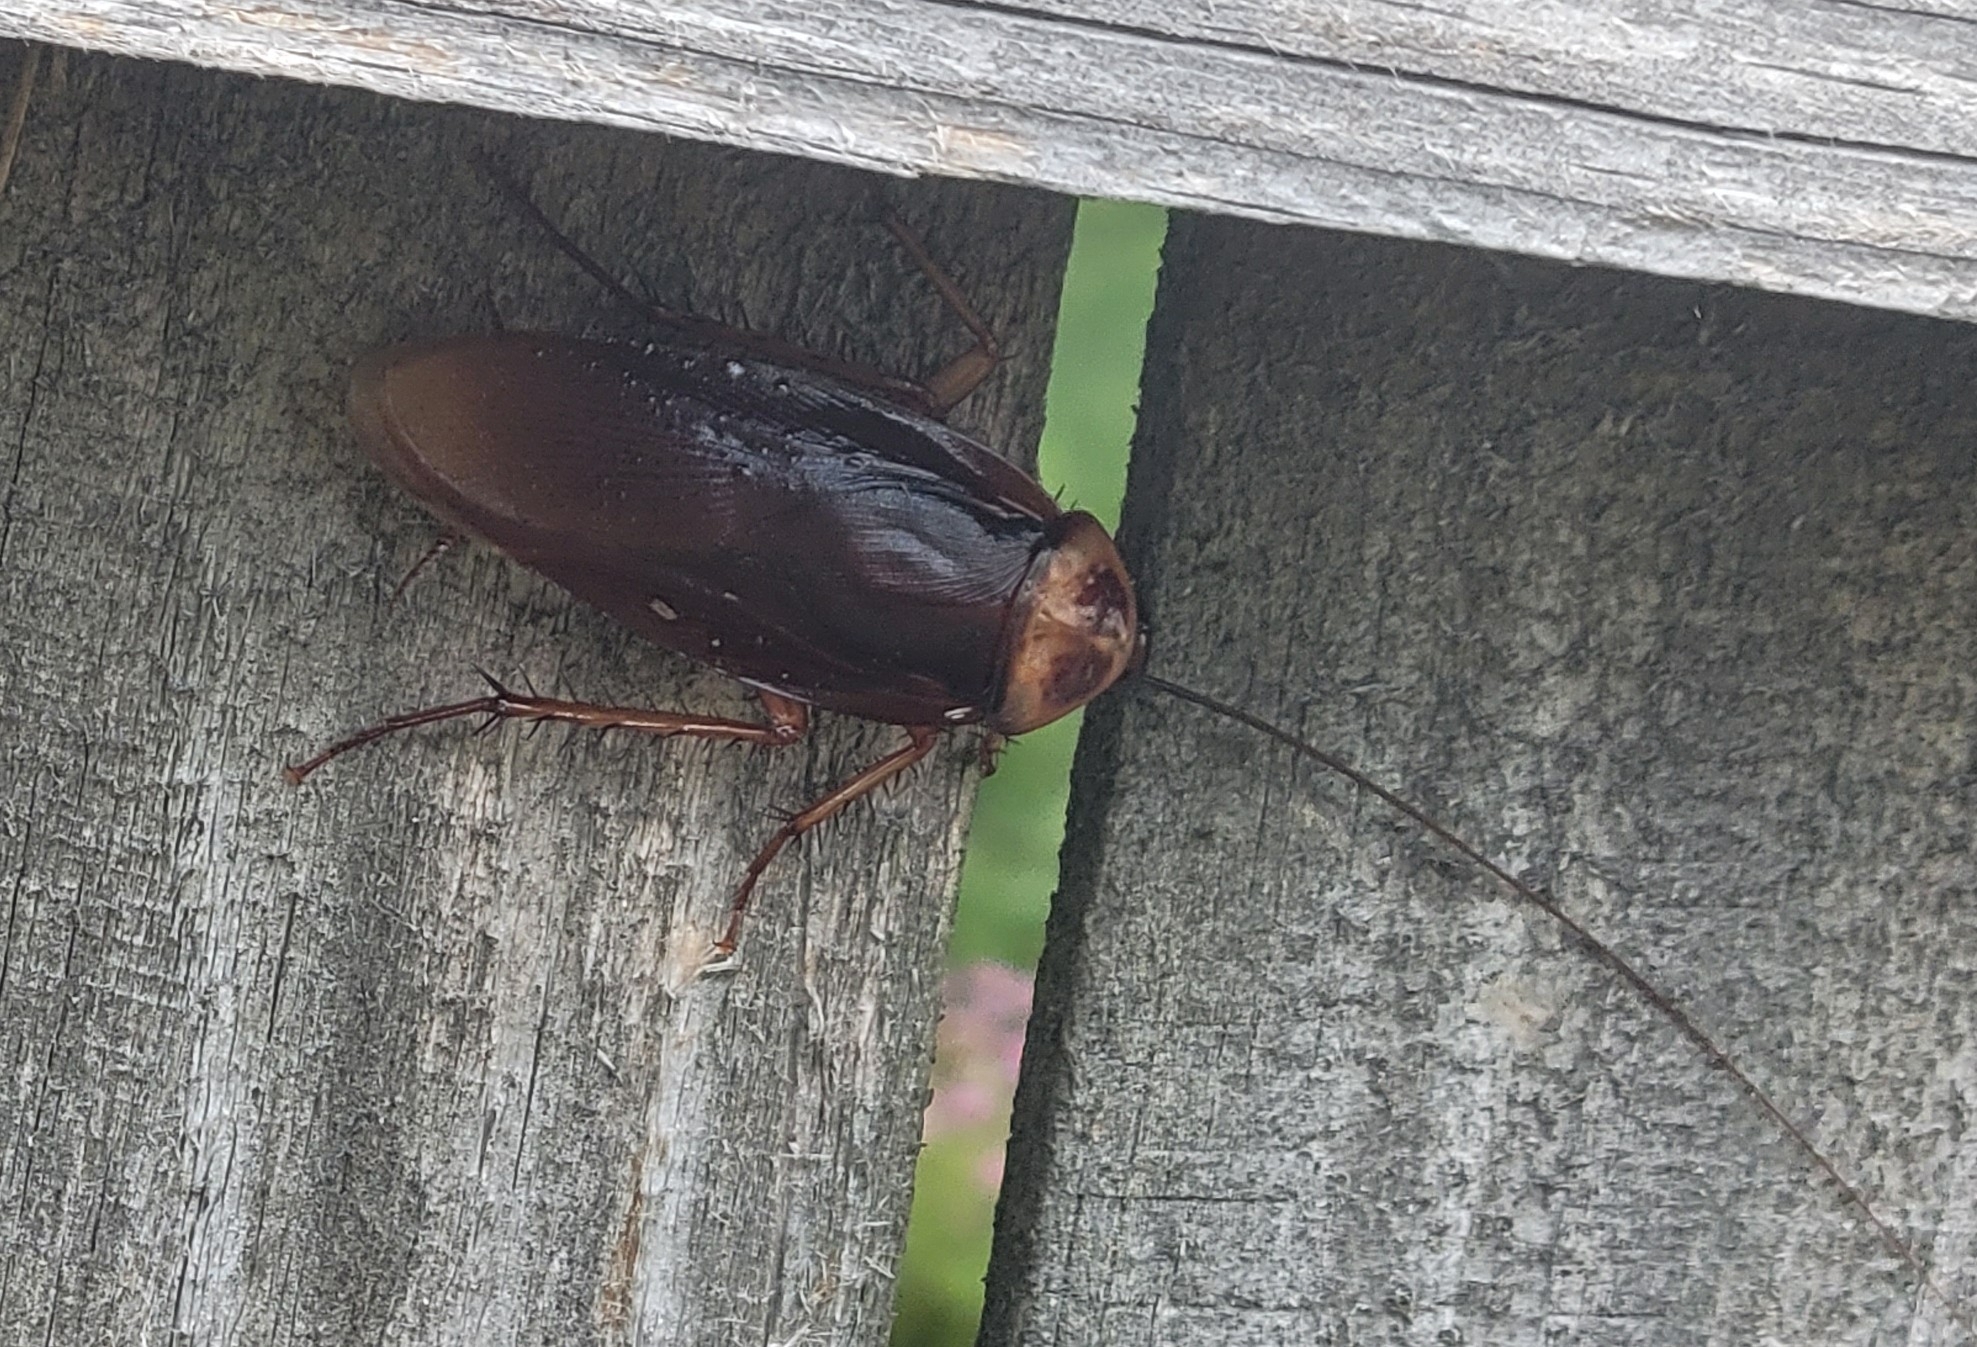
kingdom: Animalia
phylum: Arthropoda
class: Insecta
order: Blattodea
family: Blattidae
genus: Periplaneta
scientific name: Periplaneta americana
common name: American cockroach
